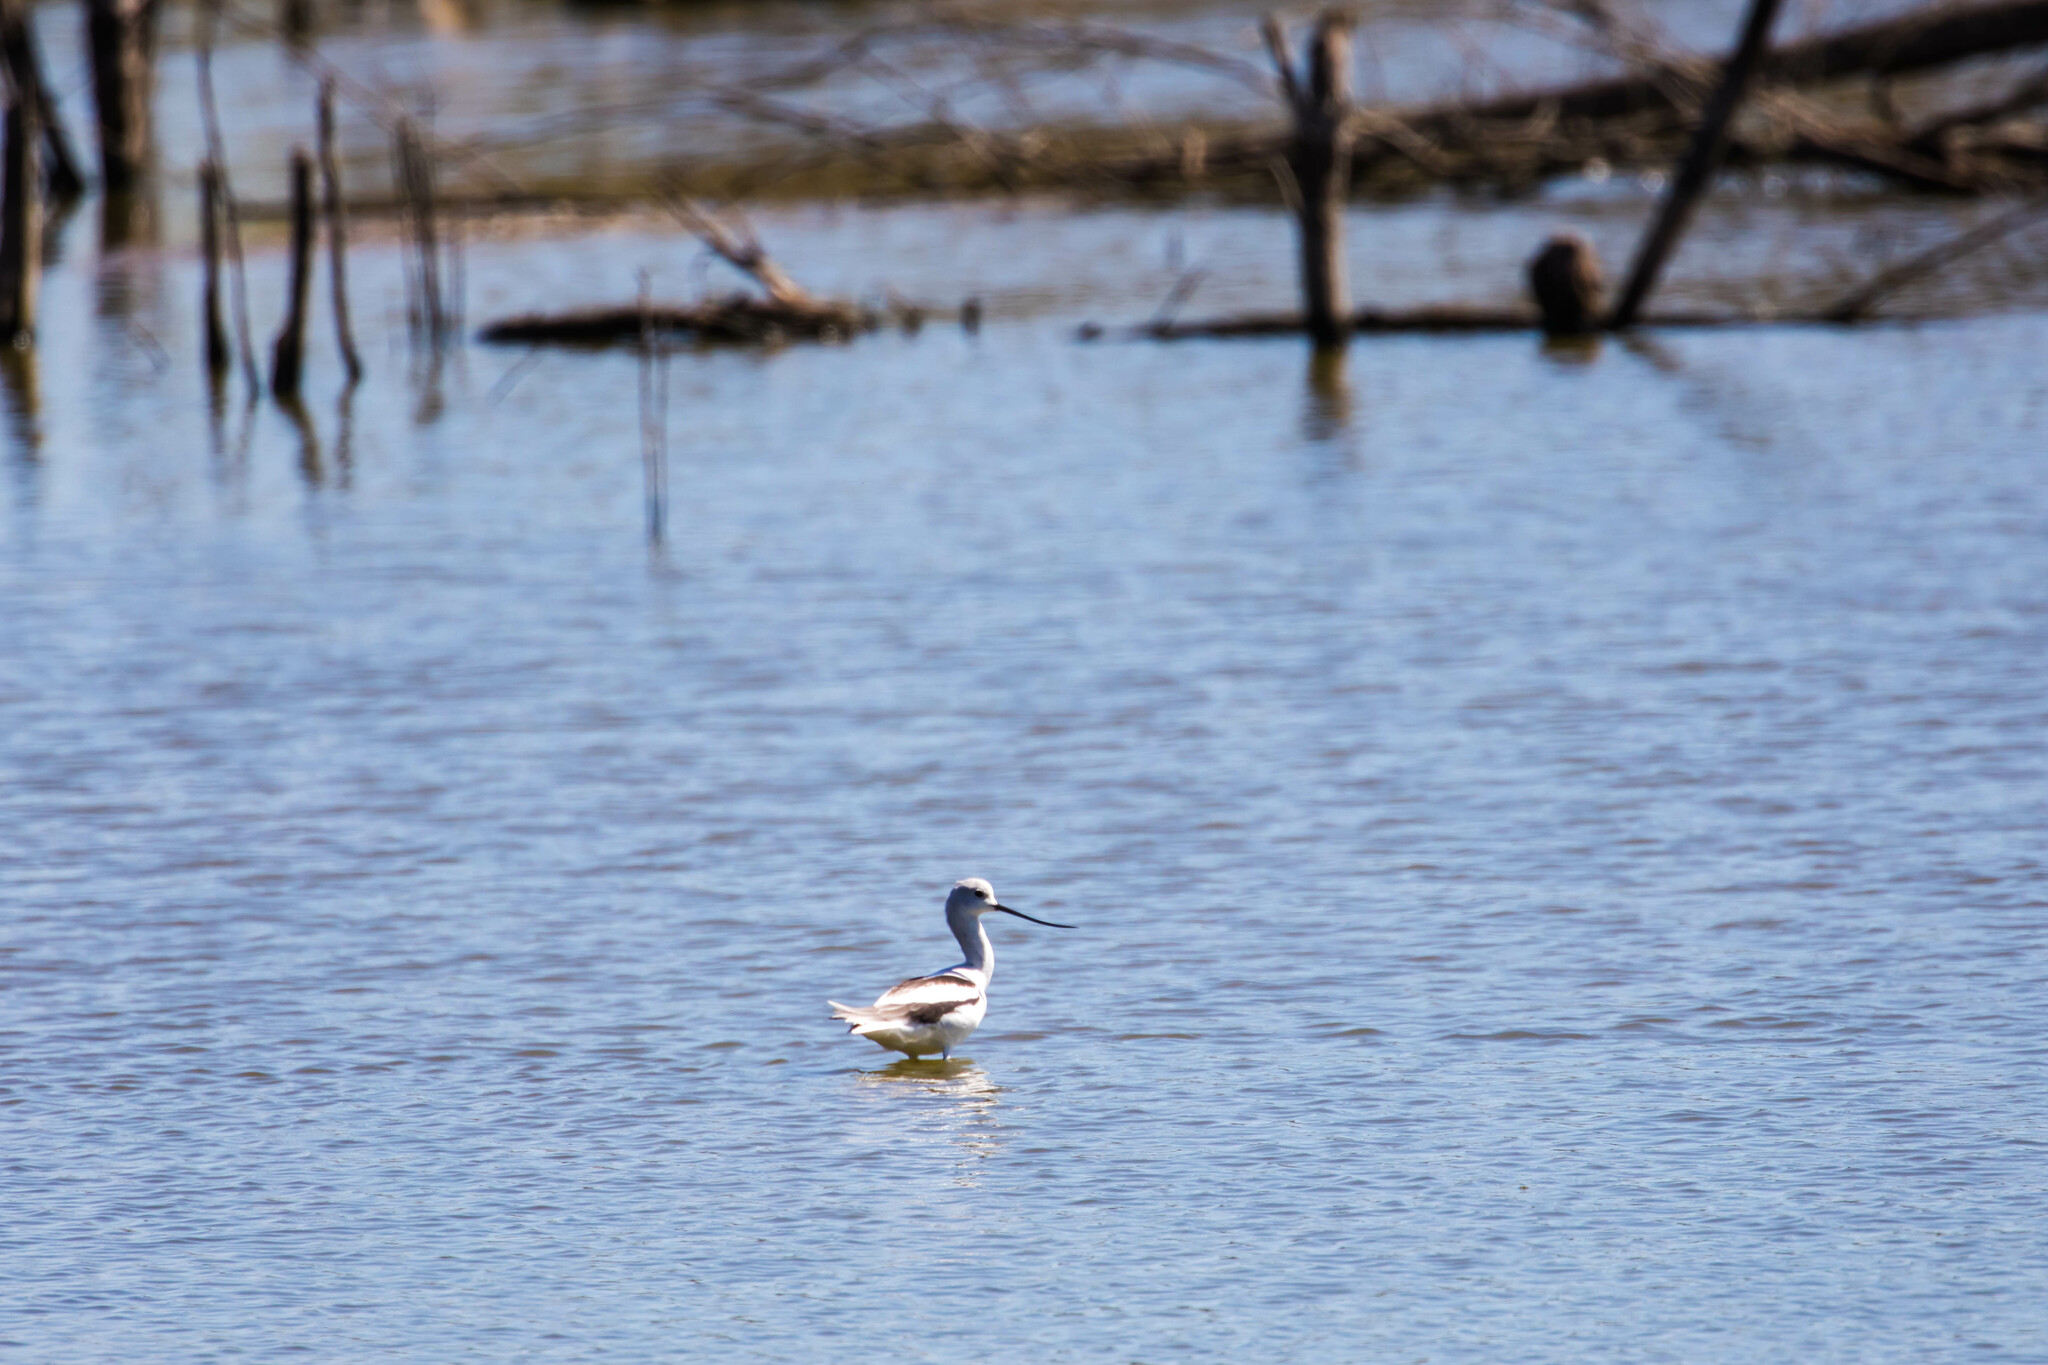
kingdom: Animalia
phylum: Chordata
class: Aves
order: Charadriiformes
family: Recurvirostridae
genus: Recurvirostra
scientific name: Recurvirostra americana
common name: American avocet
